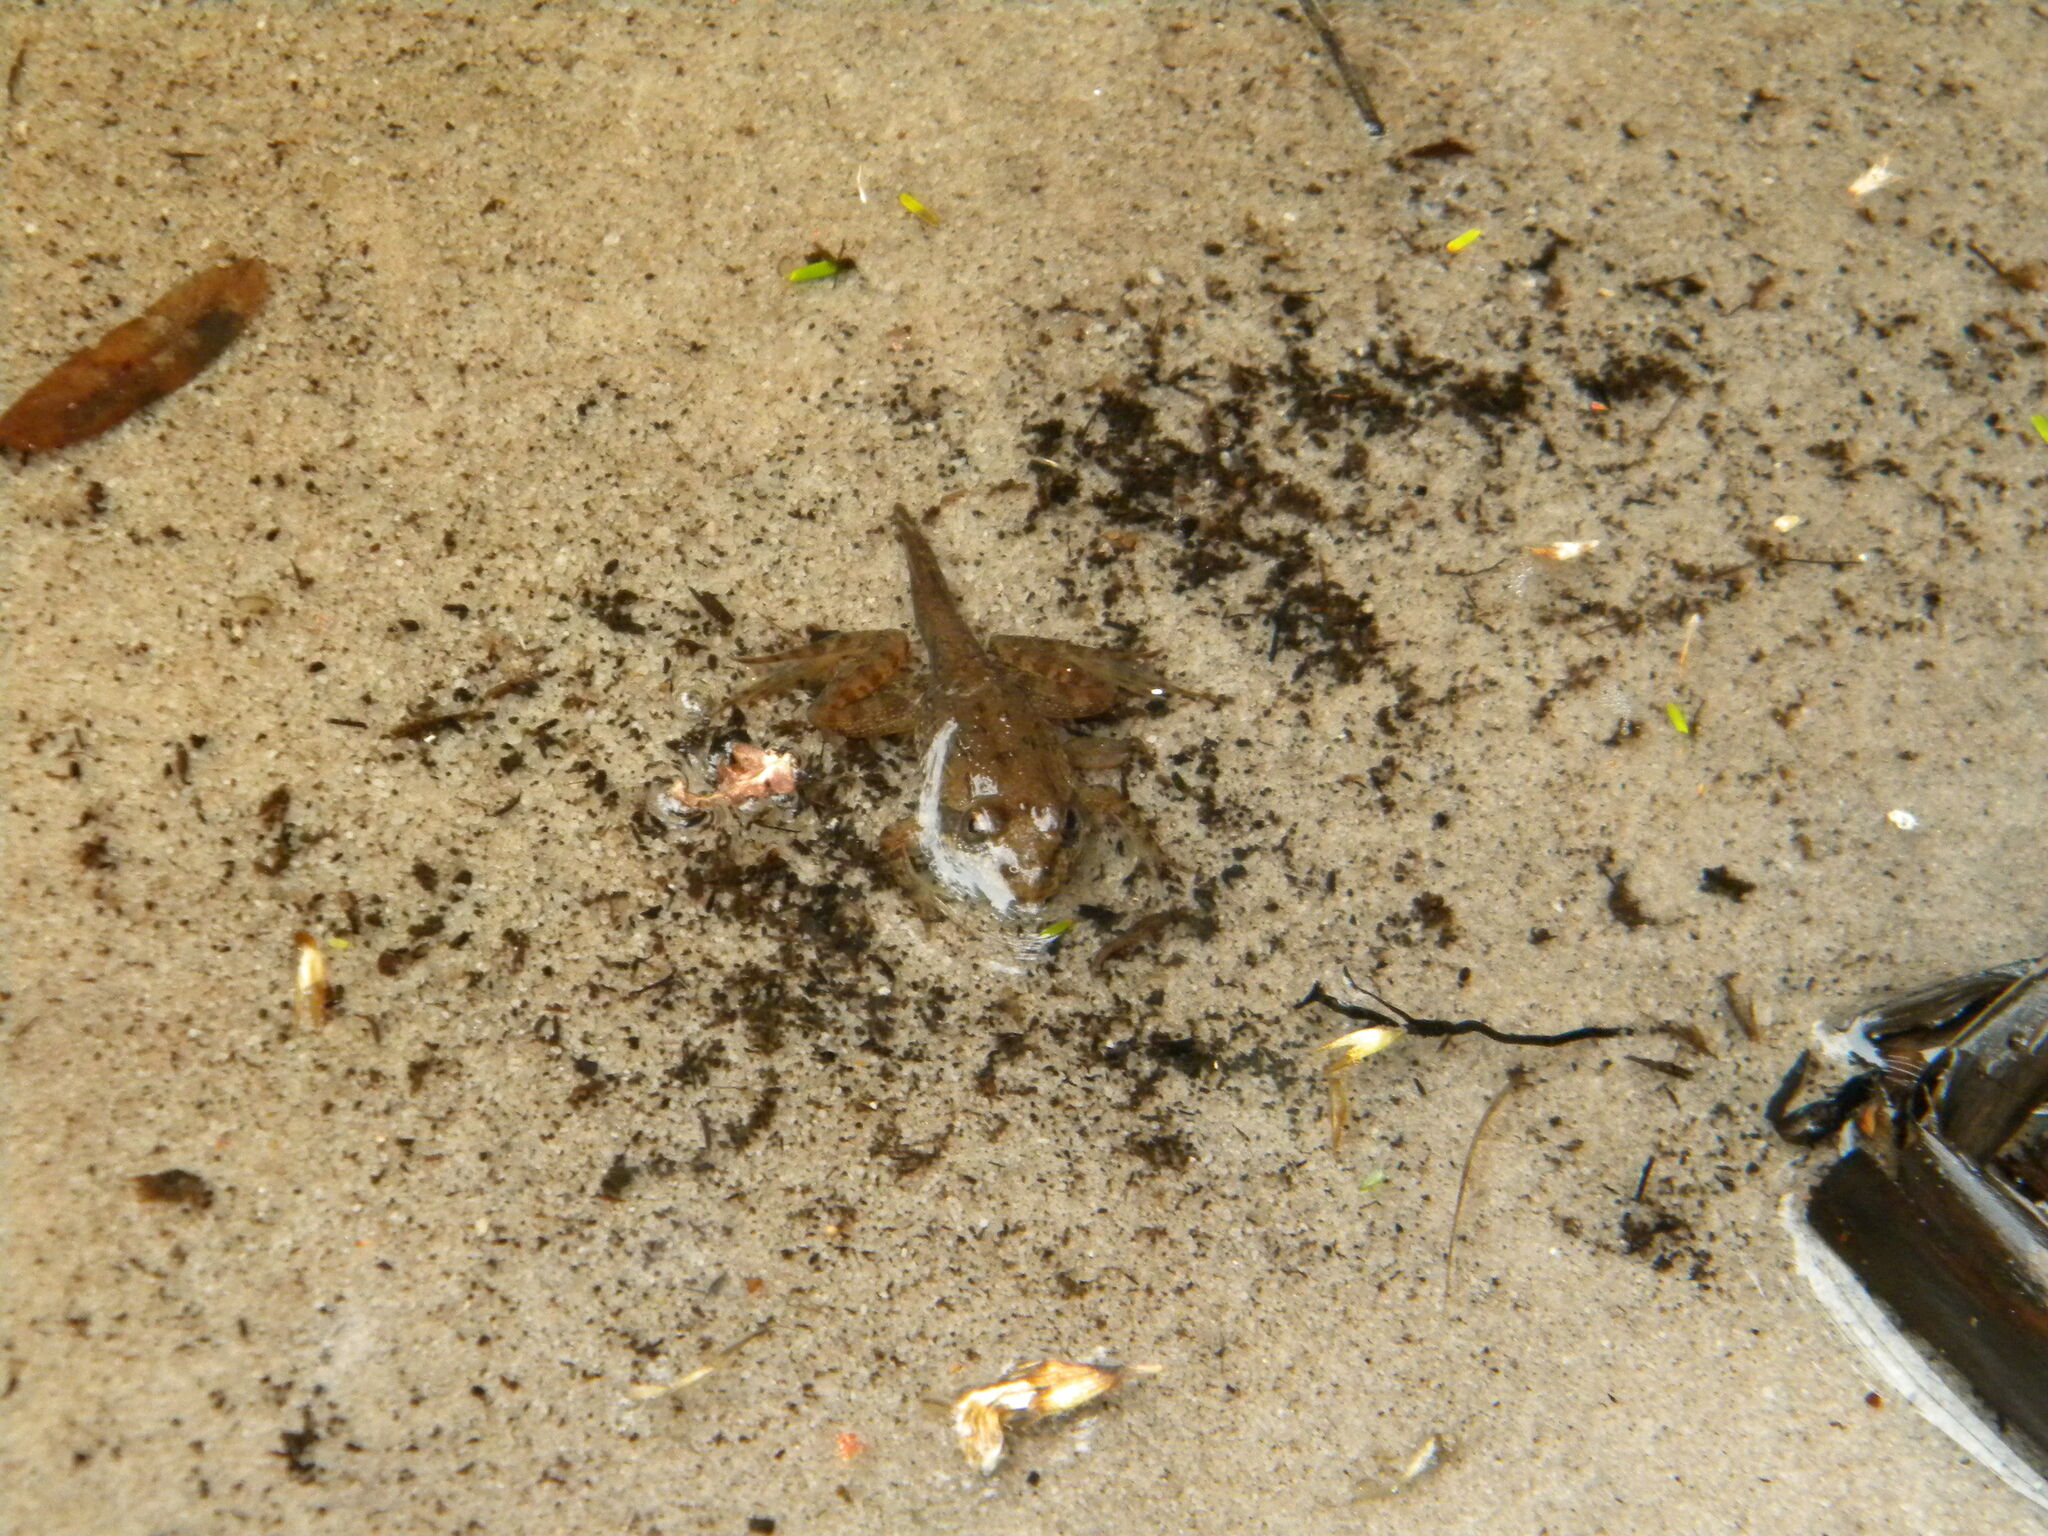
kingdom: Animalia
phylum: Chordata
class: Amphibia
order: Anura
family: Pyxicephalidae
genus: Amietia
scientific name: Amietia fuscigula
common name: Cape rana
